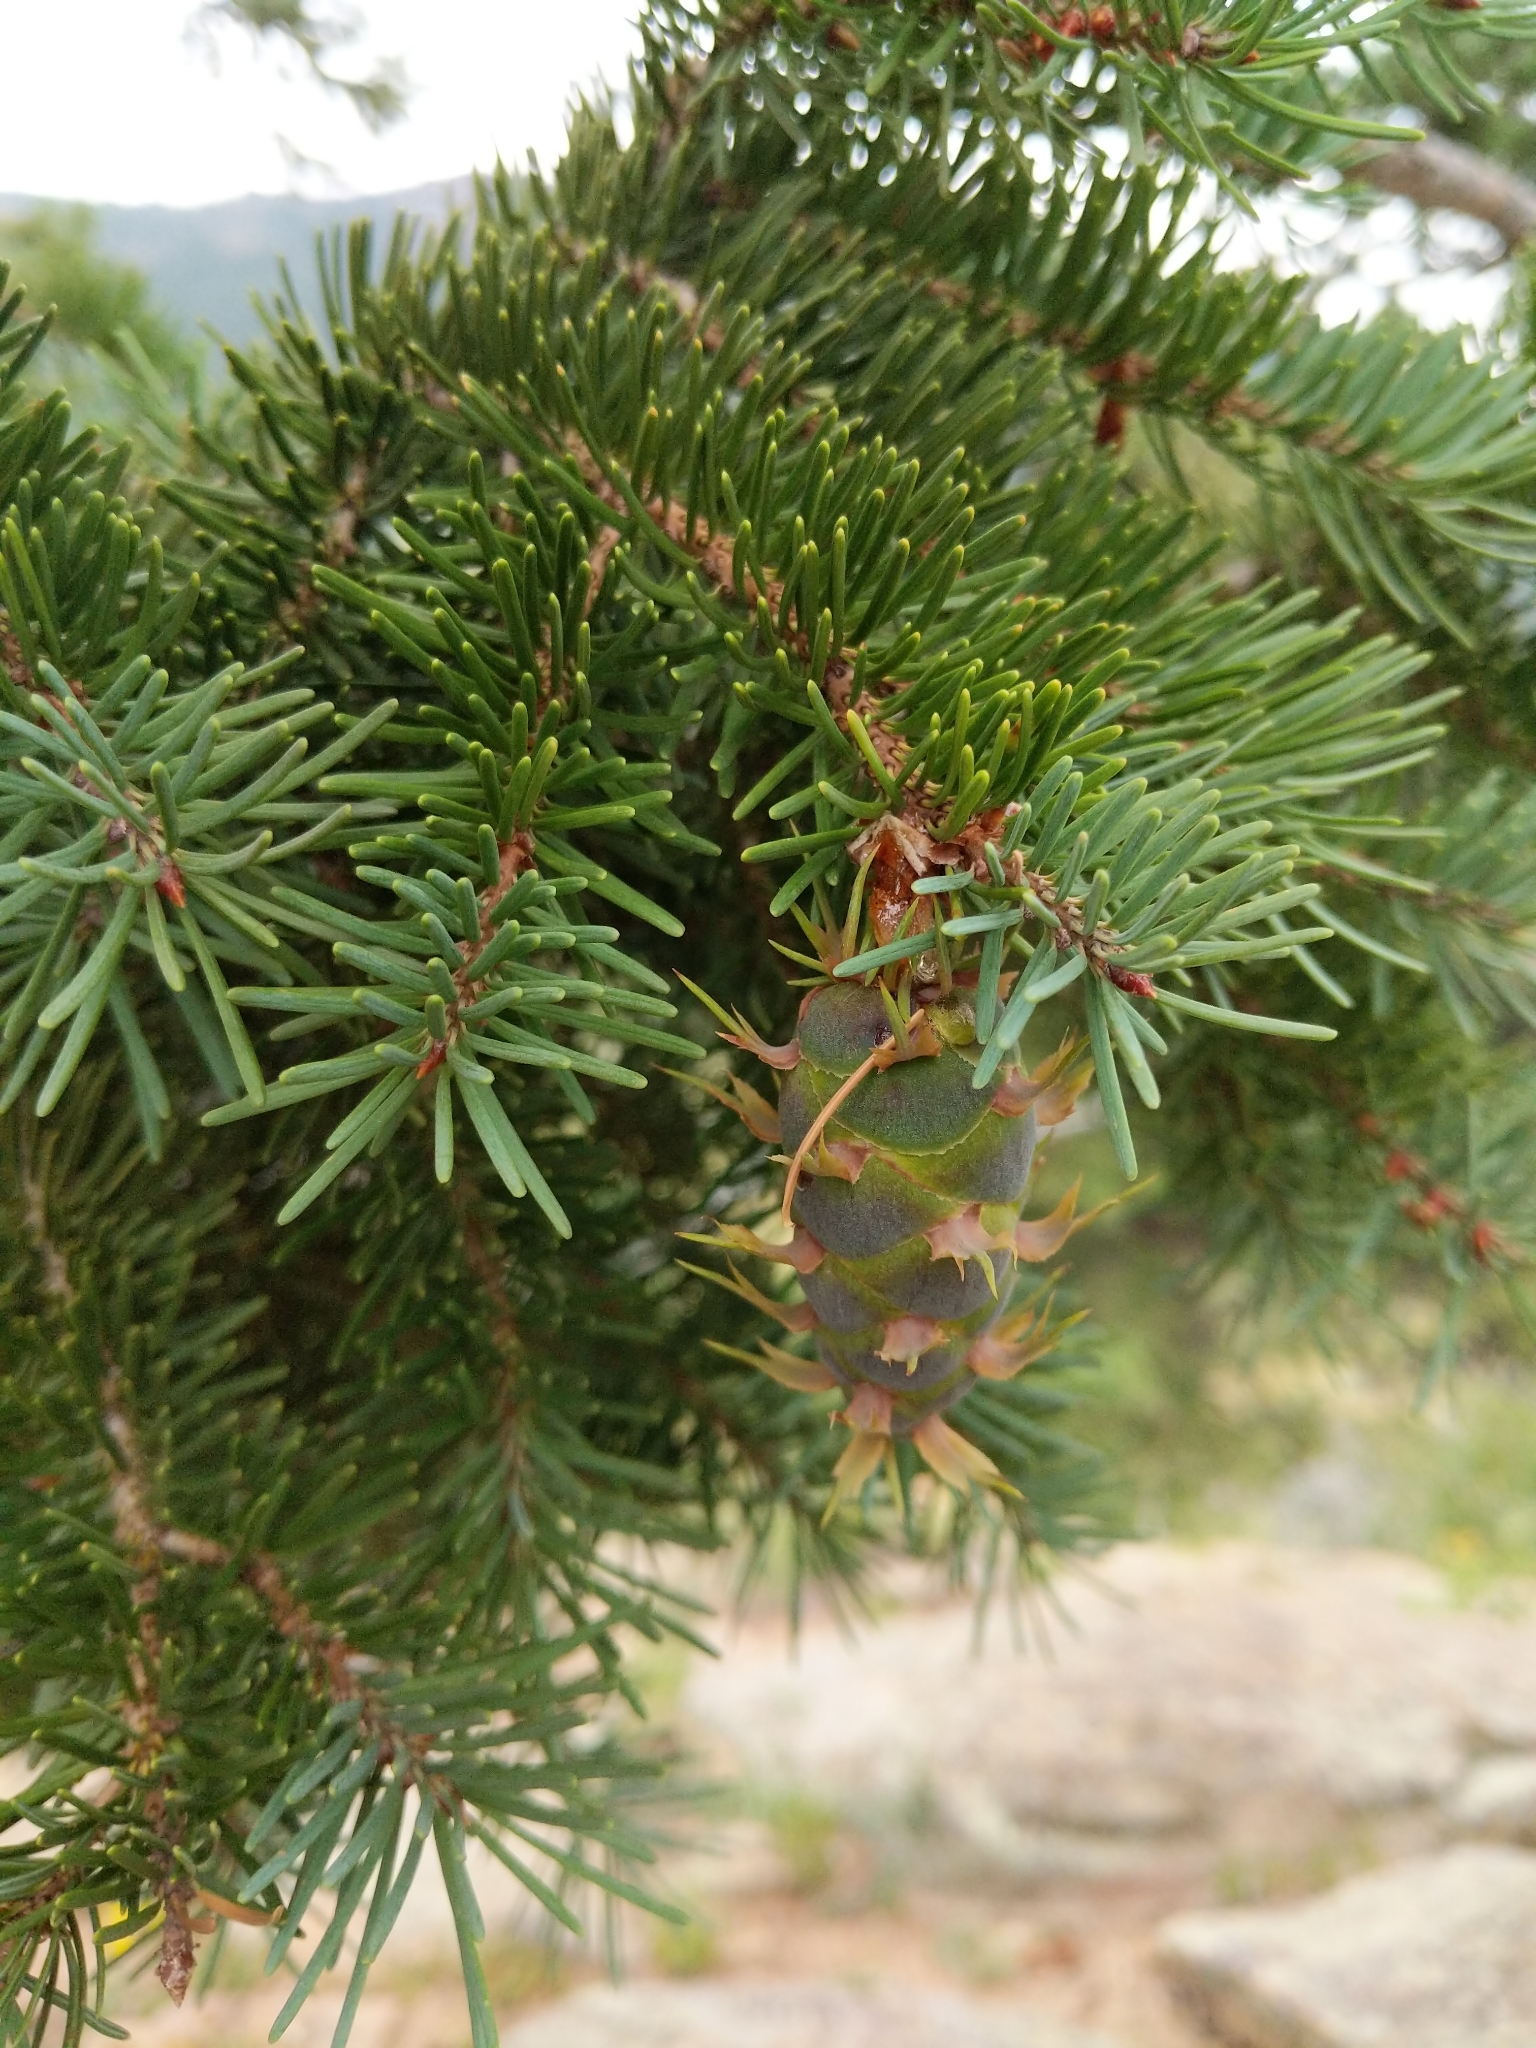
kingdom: Plantae
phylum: Tracheophyta
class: Pinopsida
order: Pinales
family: Pinaceae
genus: Pseudotsuga
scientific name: Pseudotsuga menziesii
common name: Douglas fir
